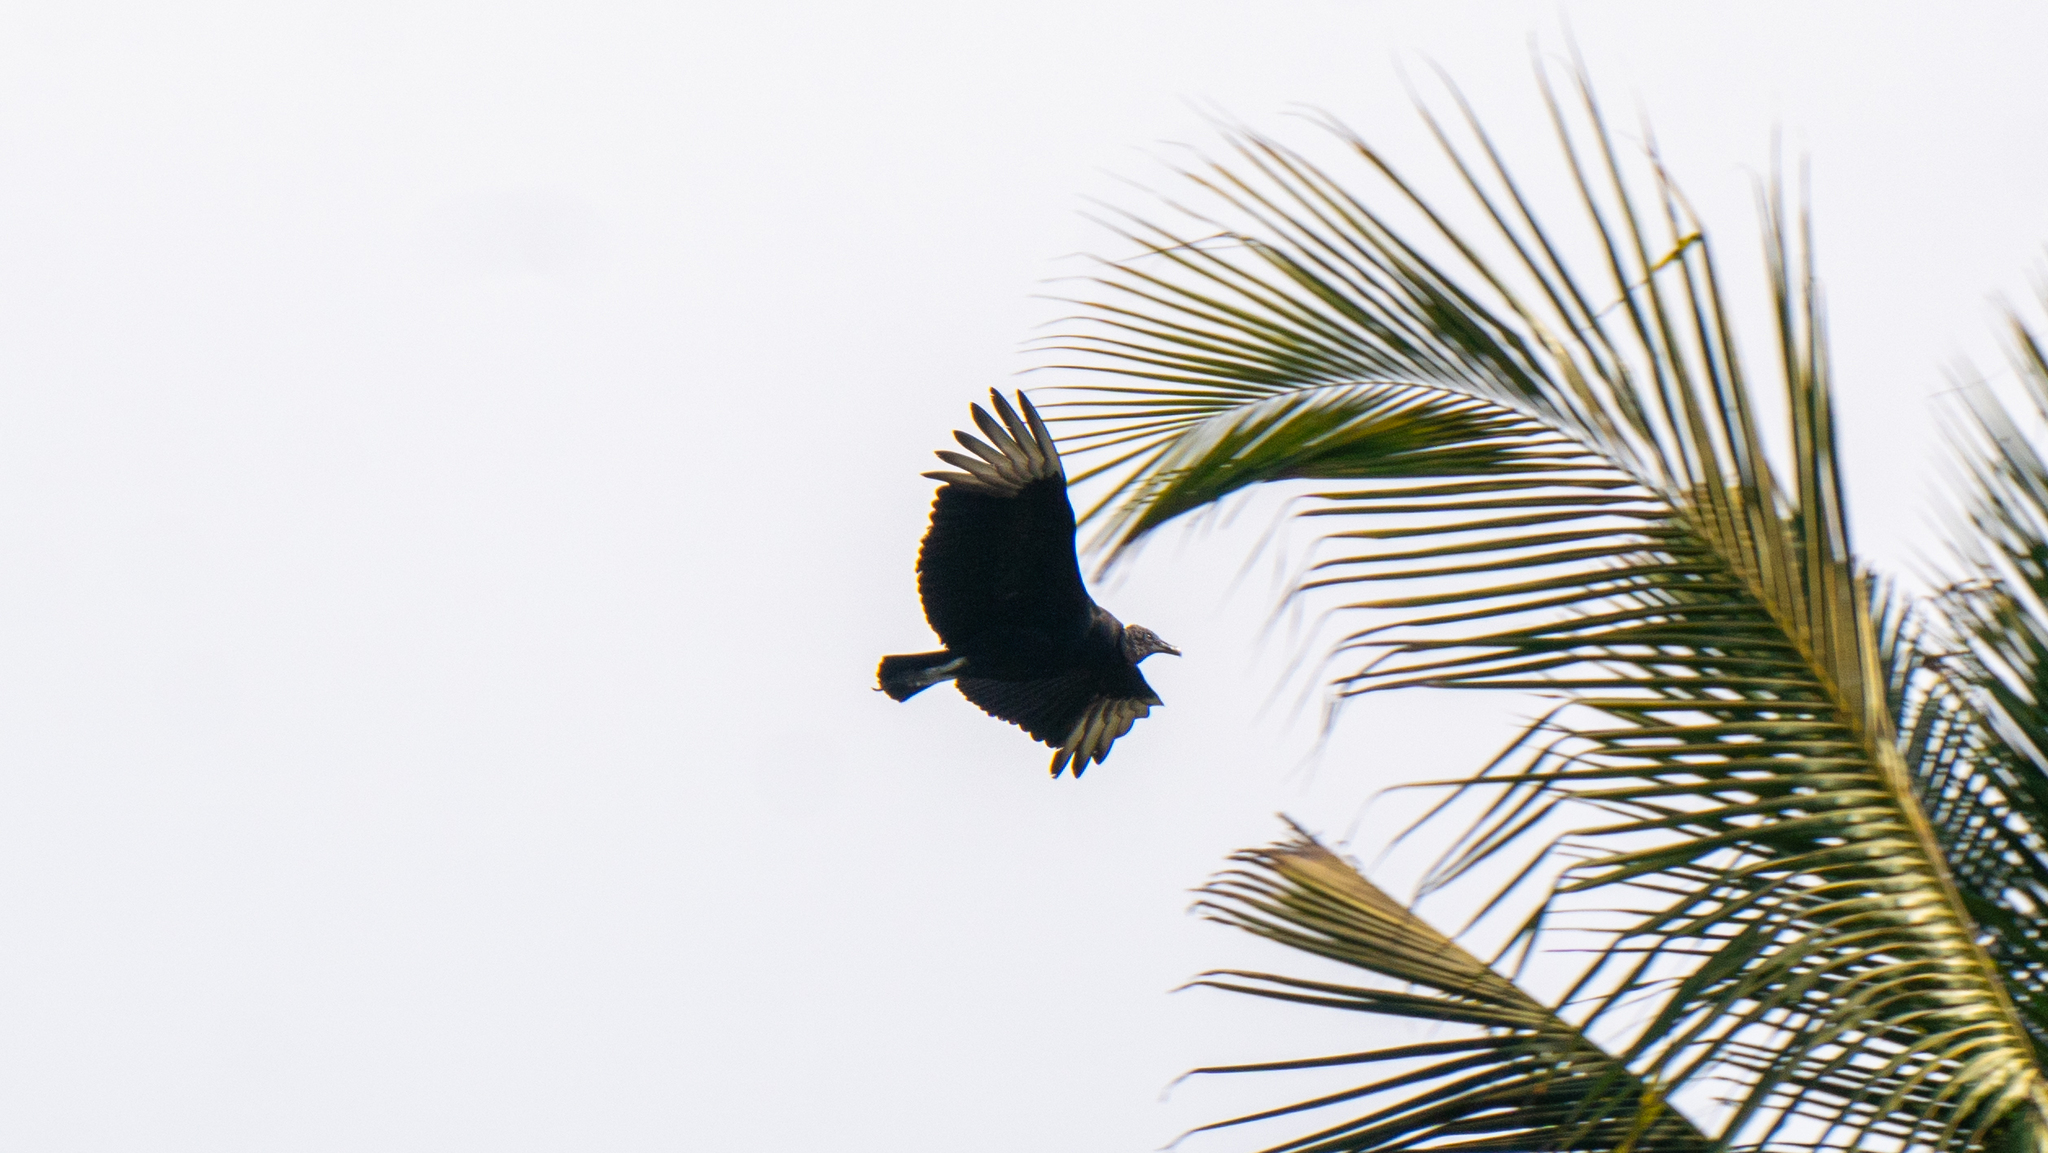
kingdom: Animalia
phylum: Chordata
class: Aves
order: Accipitriformes
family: Cathartidae
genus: Coragyps
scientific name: Coragyps atratus
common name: Black vulture
